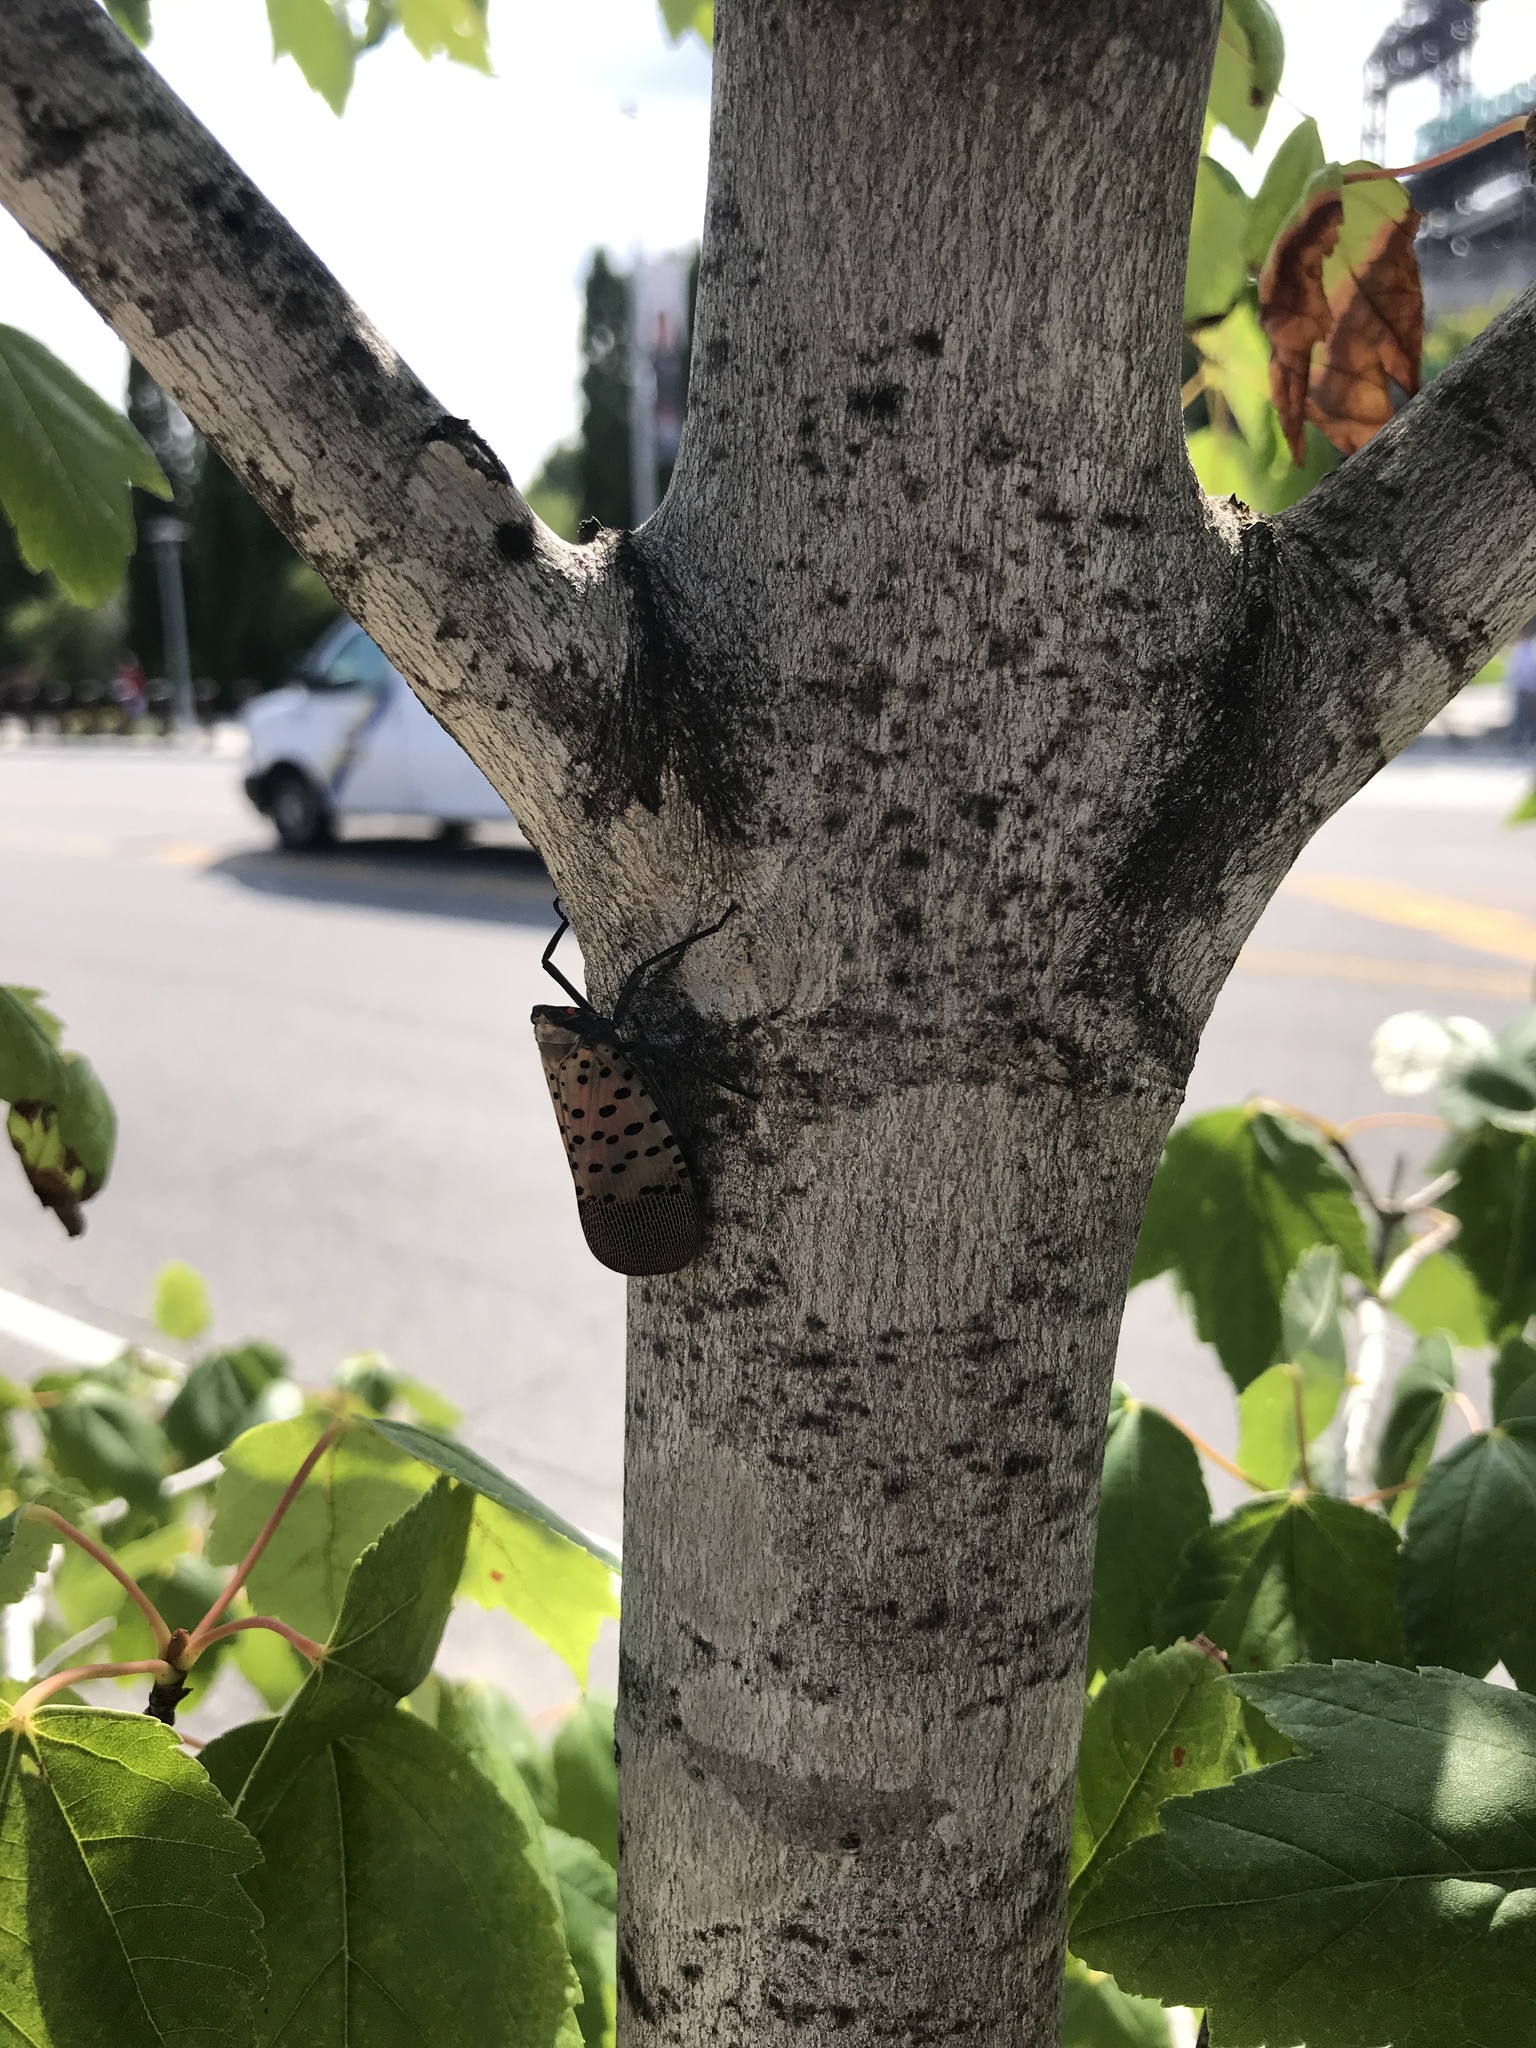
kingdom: Animalia
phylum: Arthropoda
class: Insecta
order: Hemiptera
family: Fulgoridae
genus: Lycorma
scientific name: Lycorma delicatula
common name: Spotted lanternfly
